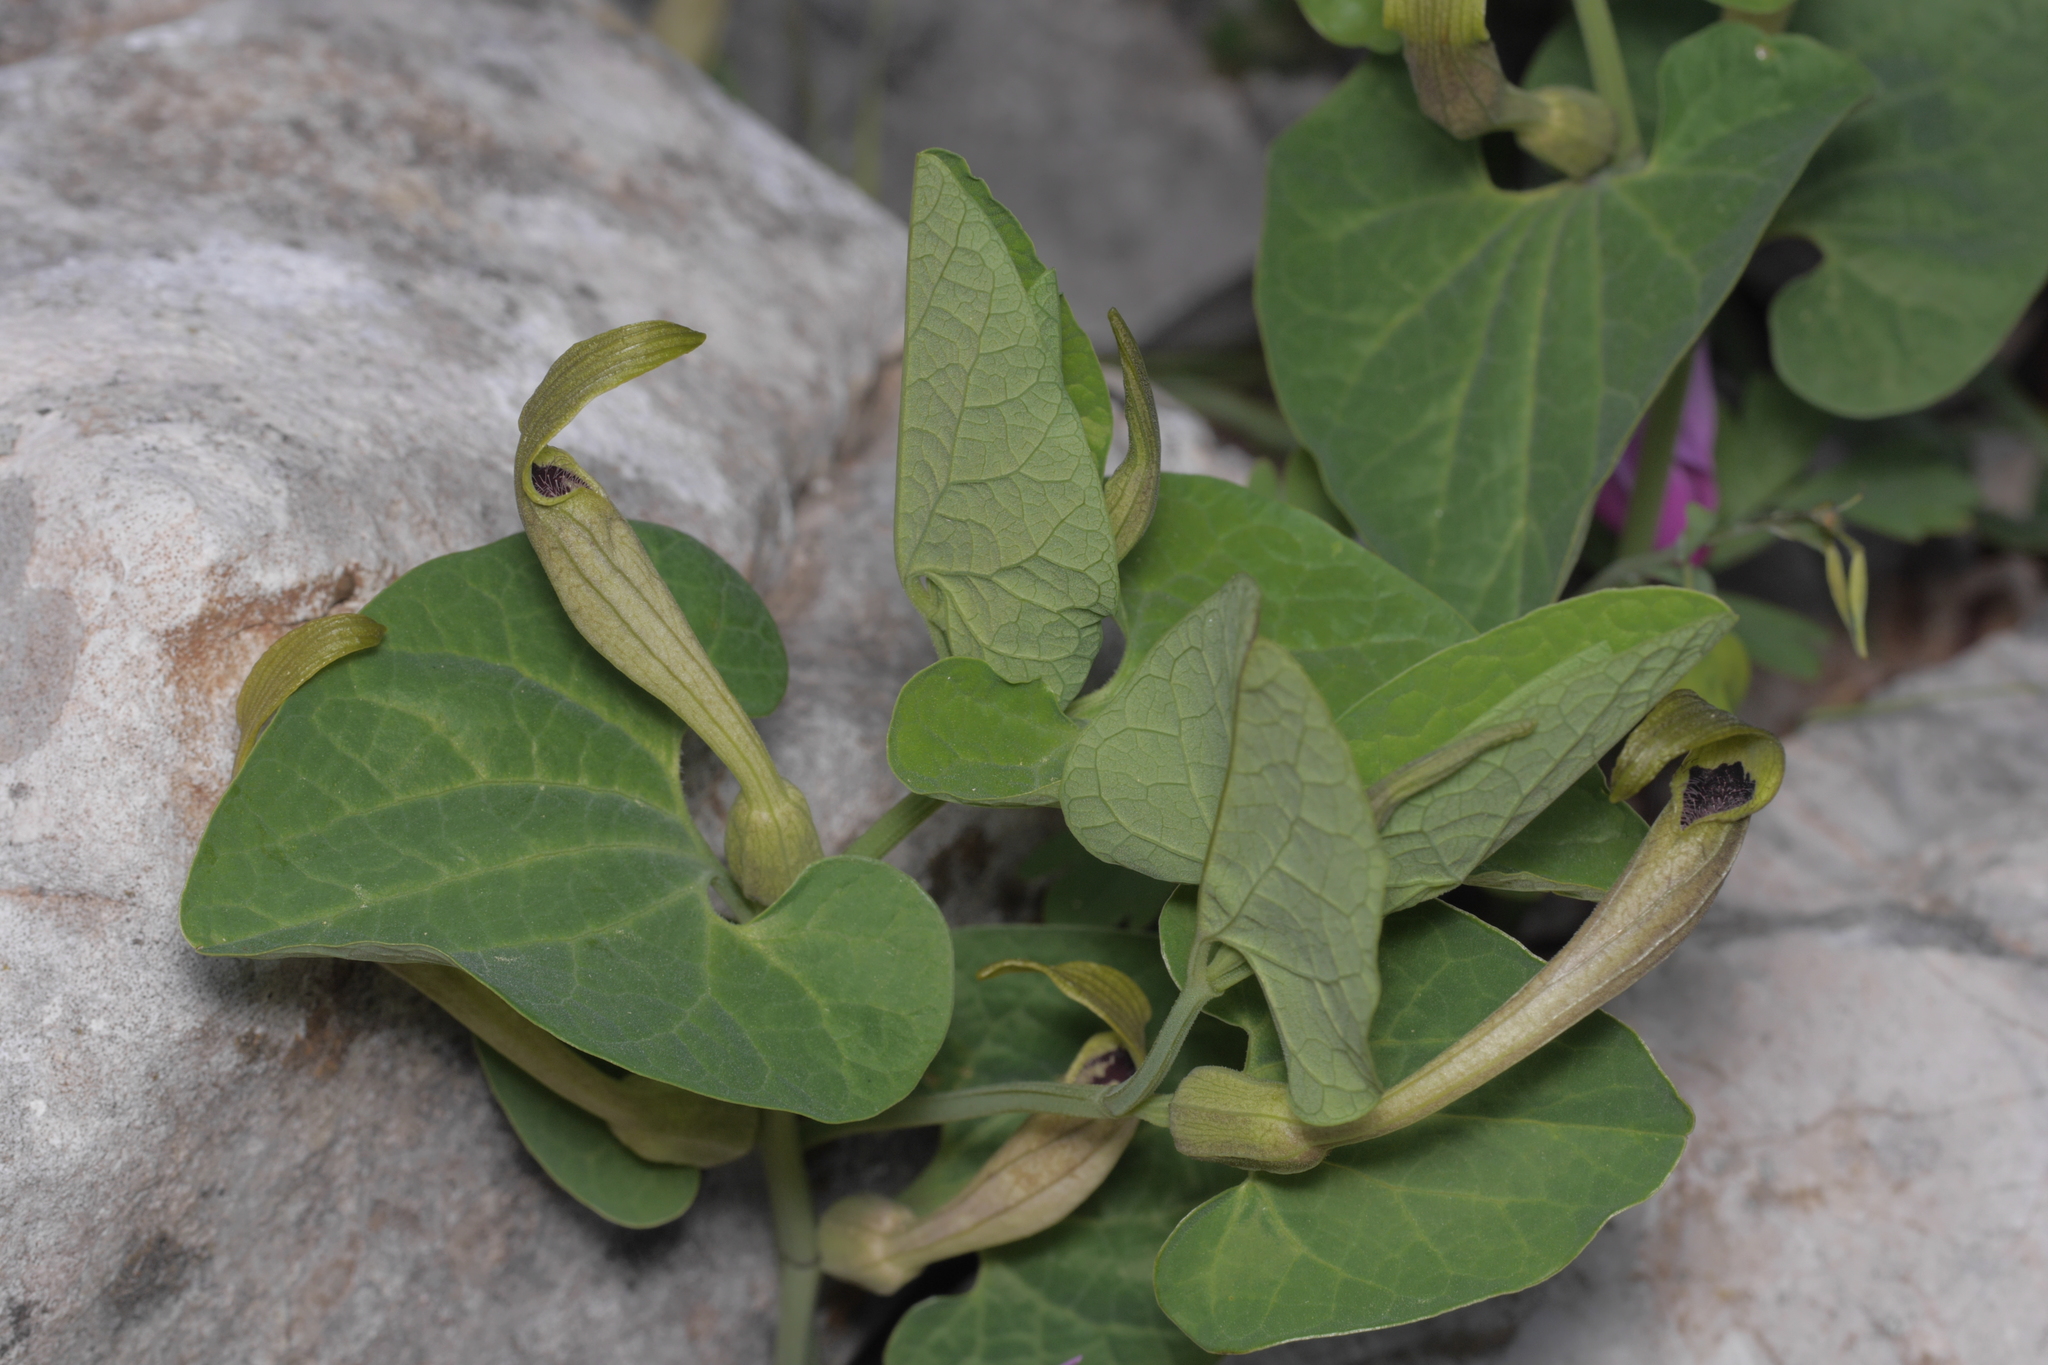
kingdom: Plantae
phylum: Tracheophyta
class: Magnoliopsida
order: Piperales
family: Aristolochiaceae
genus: Aristolochia
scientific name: Aristolochia lutea
